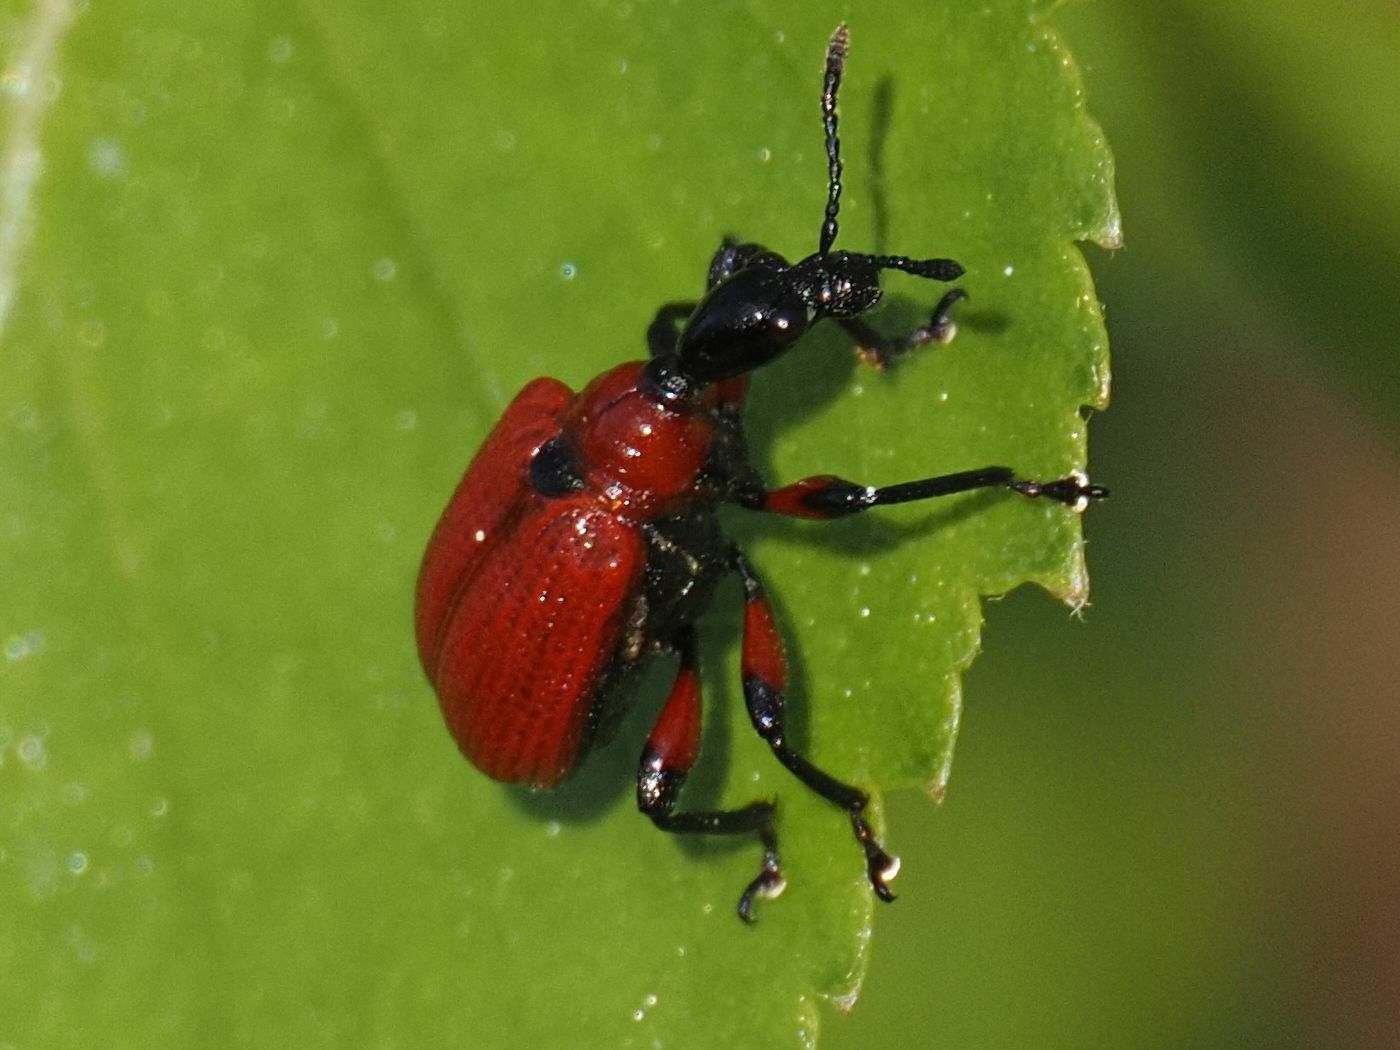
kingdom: Animalia
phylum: Arthropoda
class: Insecta
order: Coleoptera
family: Attelabidae
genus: Apoderus
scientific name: Apoderus coryli
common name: Hazel leaf roller
